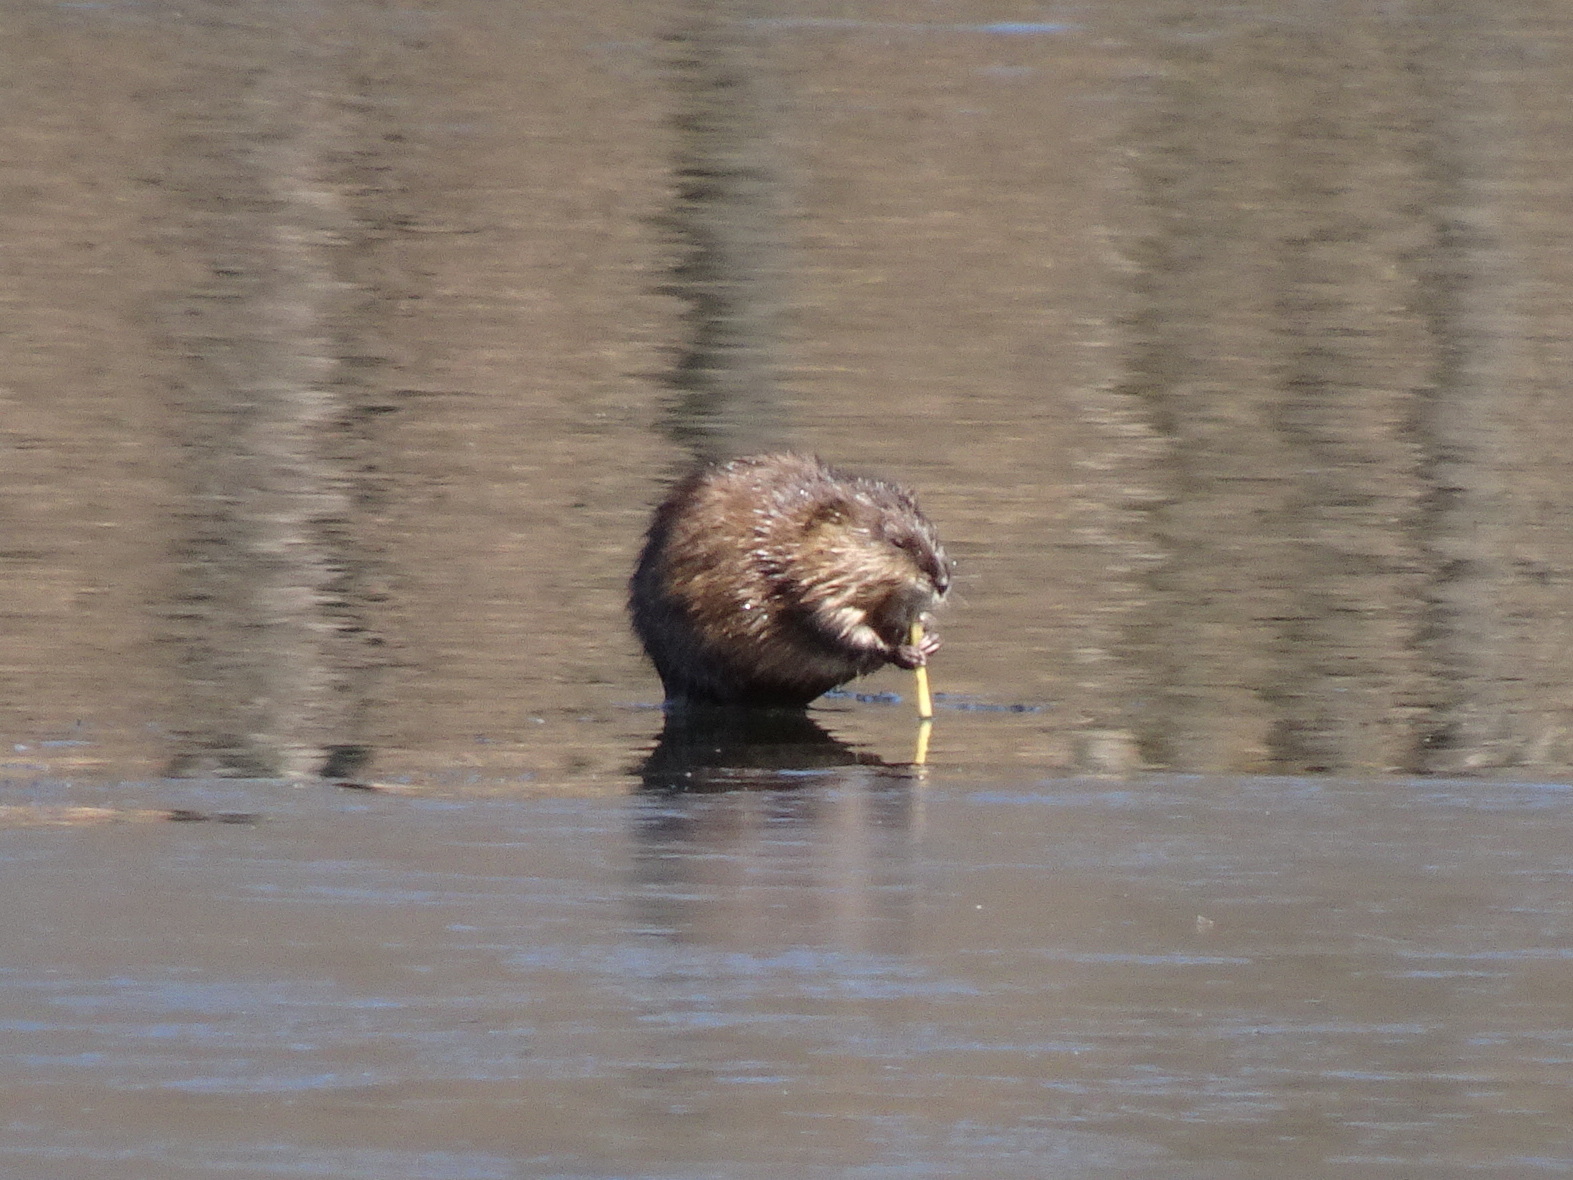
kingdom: Animalia
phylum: Chordata
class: Mammalia
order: Rodentia
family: Cricetidae
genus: Ondatra
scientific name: Ondatra zibethicus
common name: Muskrat
